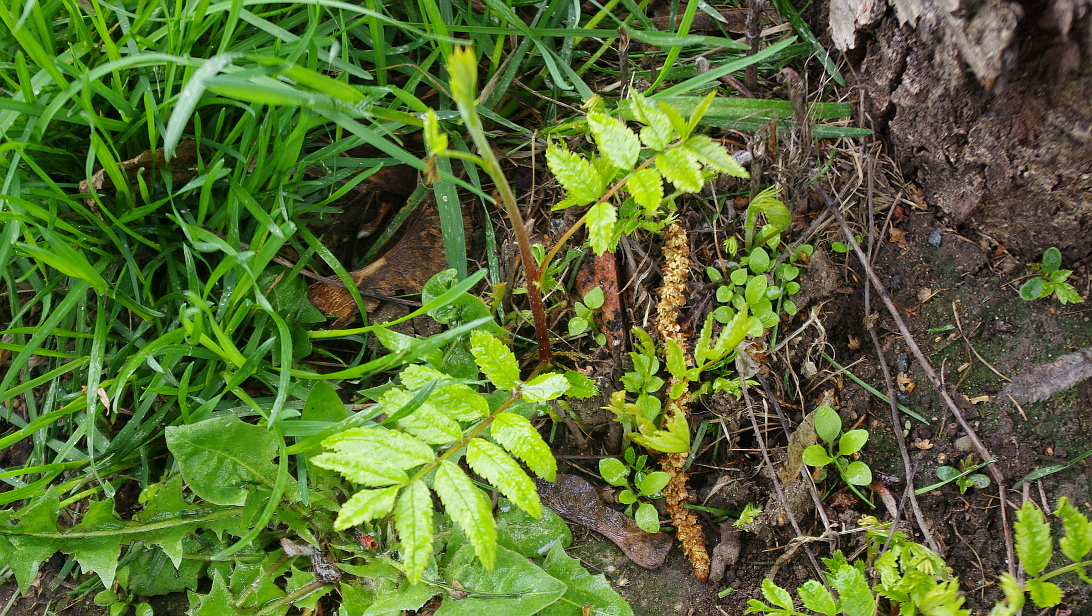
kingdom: Plantae
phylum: Tracheophyta
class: Magnoliopsida
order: Rosales
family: Rosaceae
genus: Sorbus
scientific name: Sorbus aucuparia
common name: Rowan
